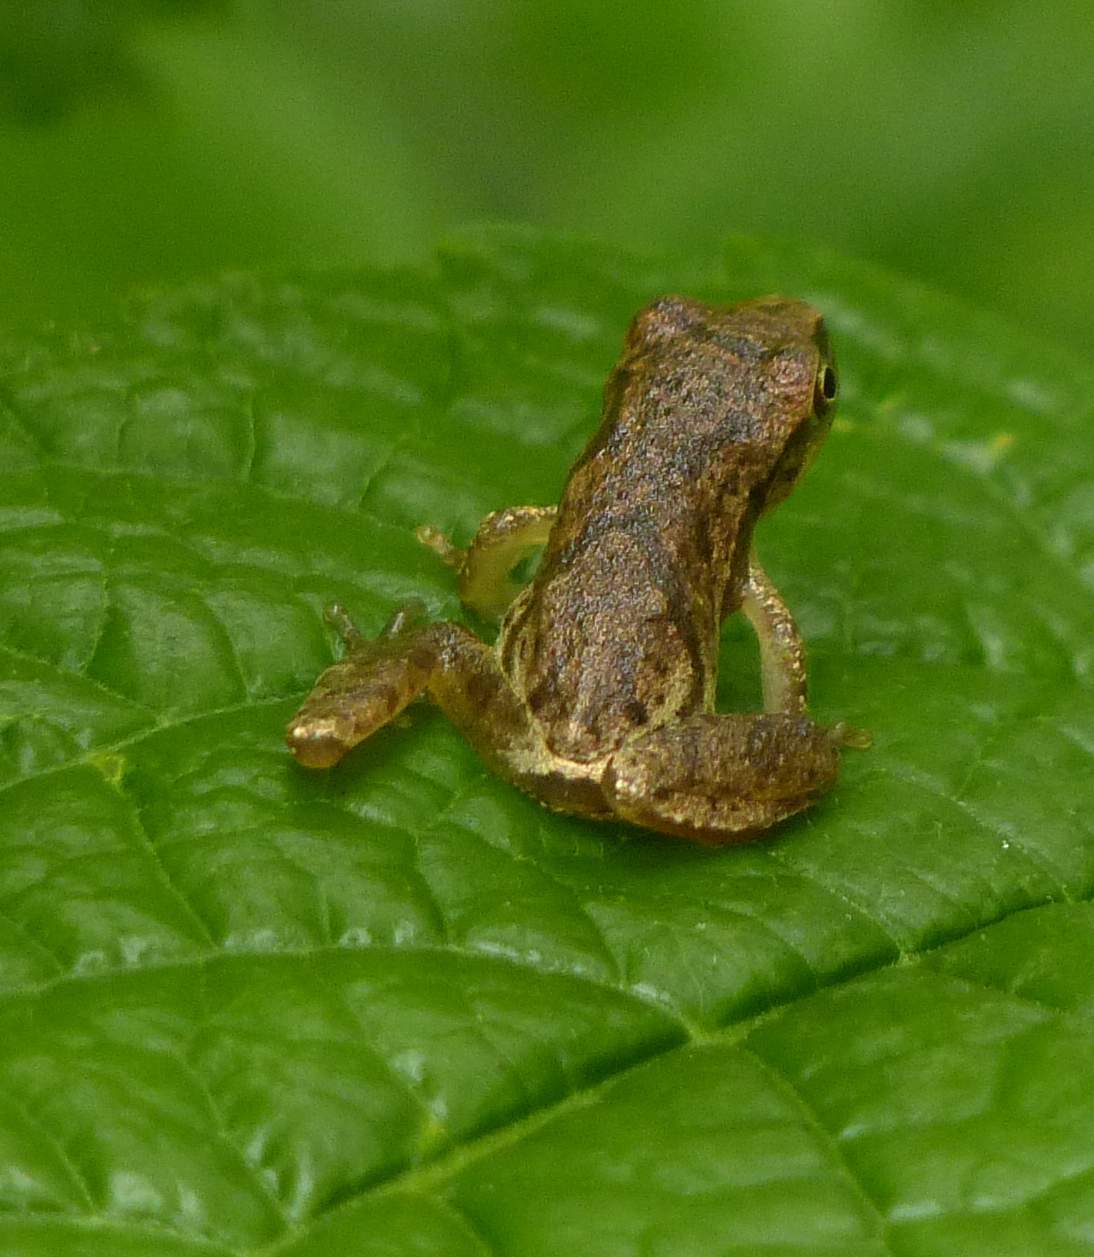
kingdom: Animalia
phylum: Chordata
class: Amphibia
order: Anura
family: Hylidae
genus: Pseudacris
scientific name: Pseudacris crucifer
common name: Spring peeper
